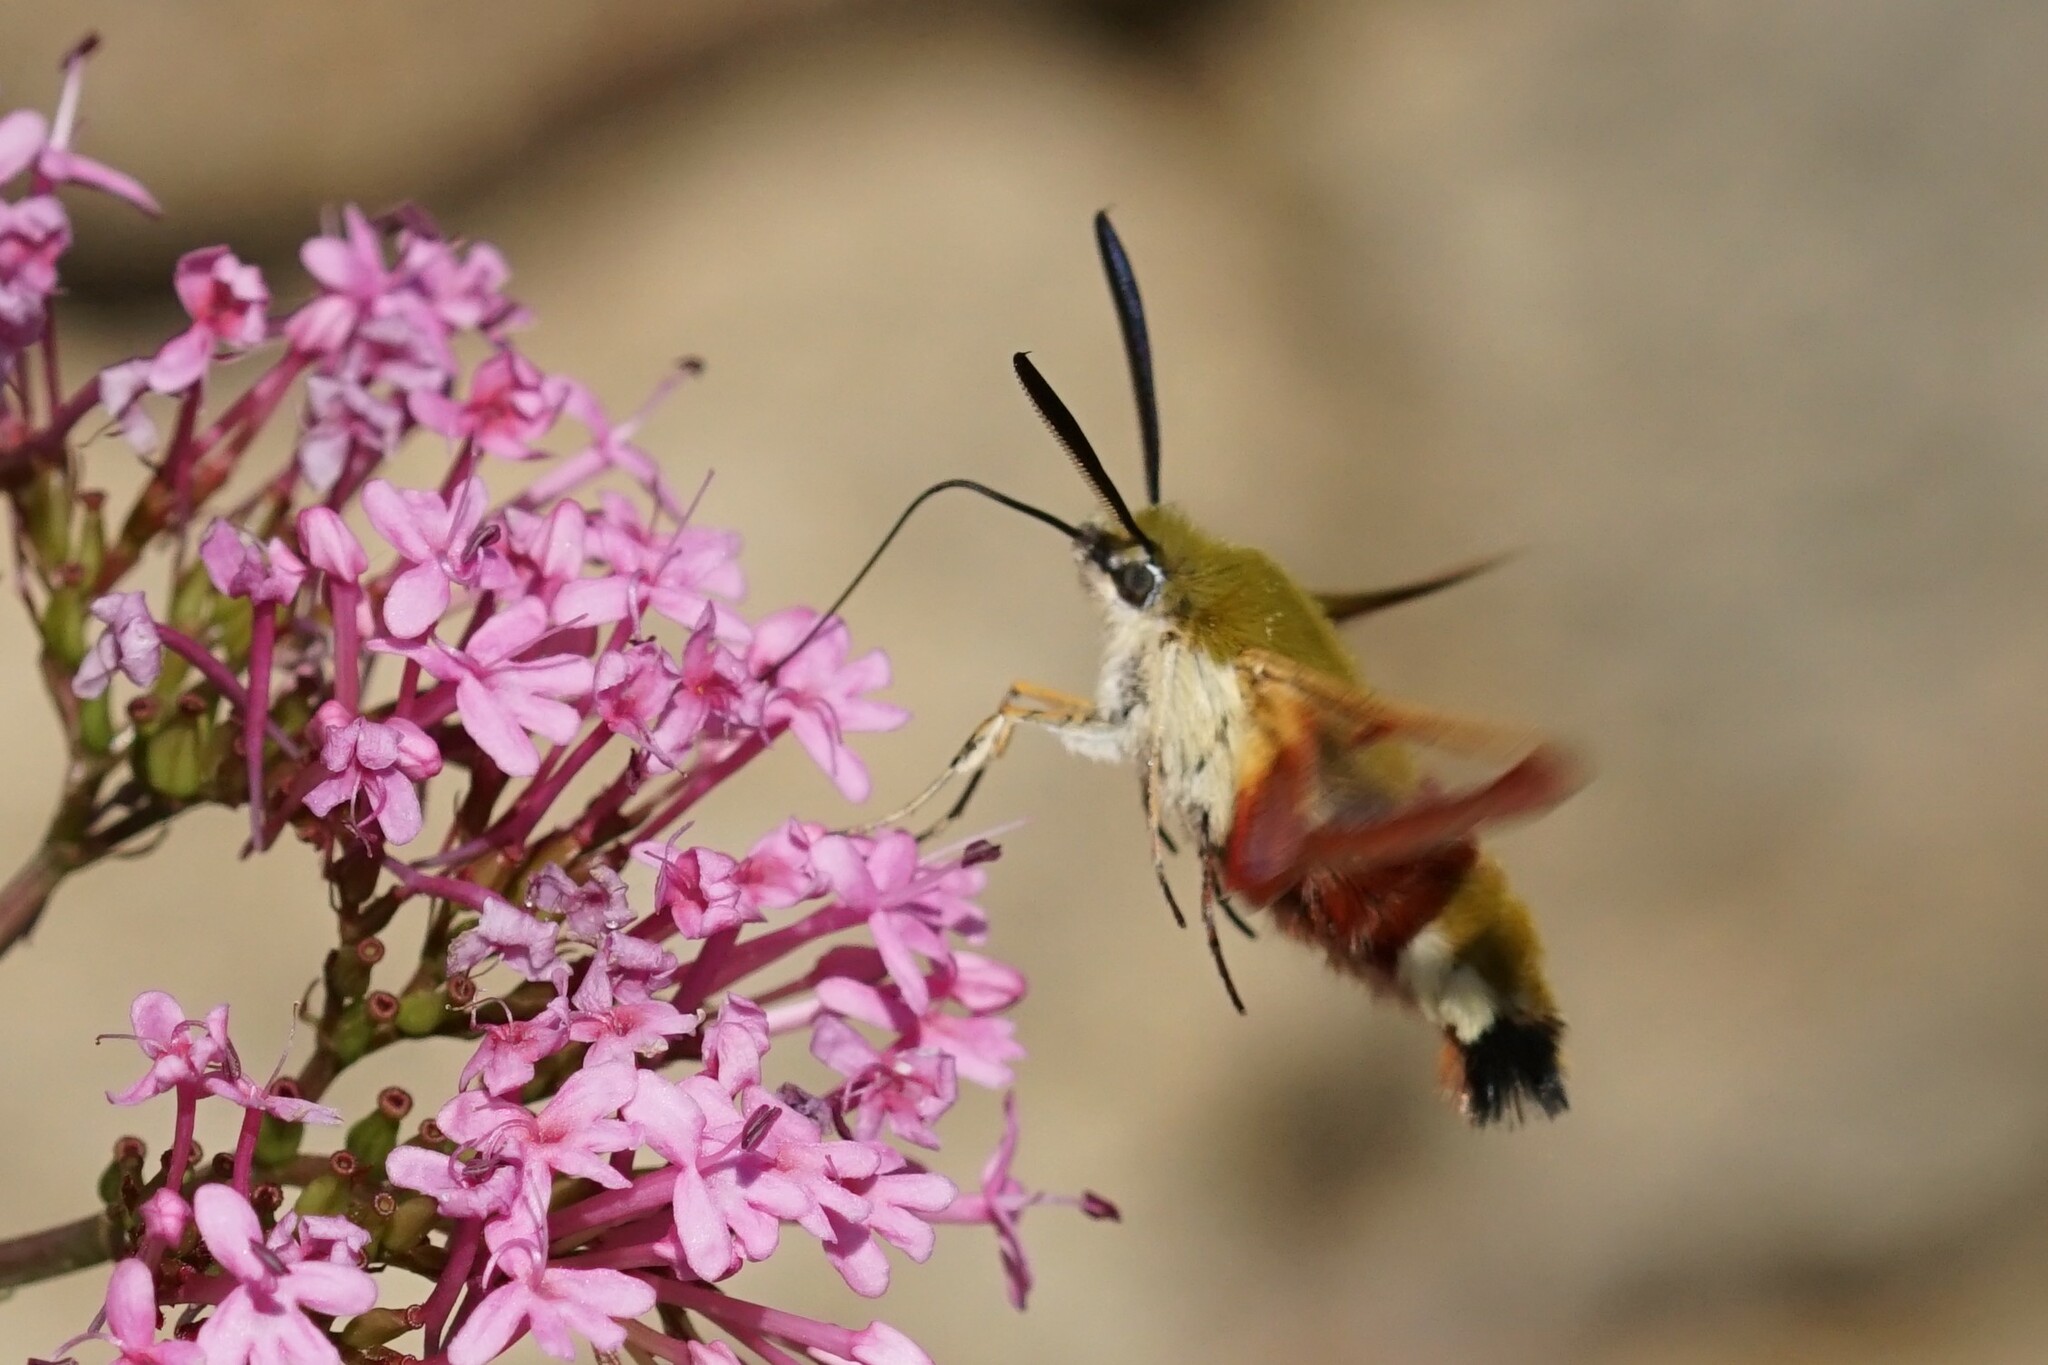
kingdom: Animalia
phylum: Arthropoda
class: Insecta
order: Lepidoptera
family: Sphingidae
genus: Hemaris
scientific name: Hemaris fuciformis
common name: Broad-bordered bee hawk-moth
